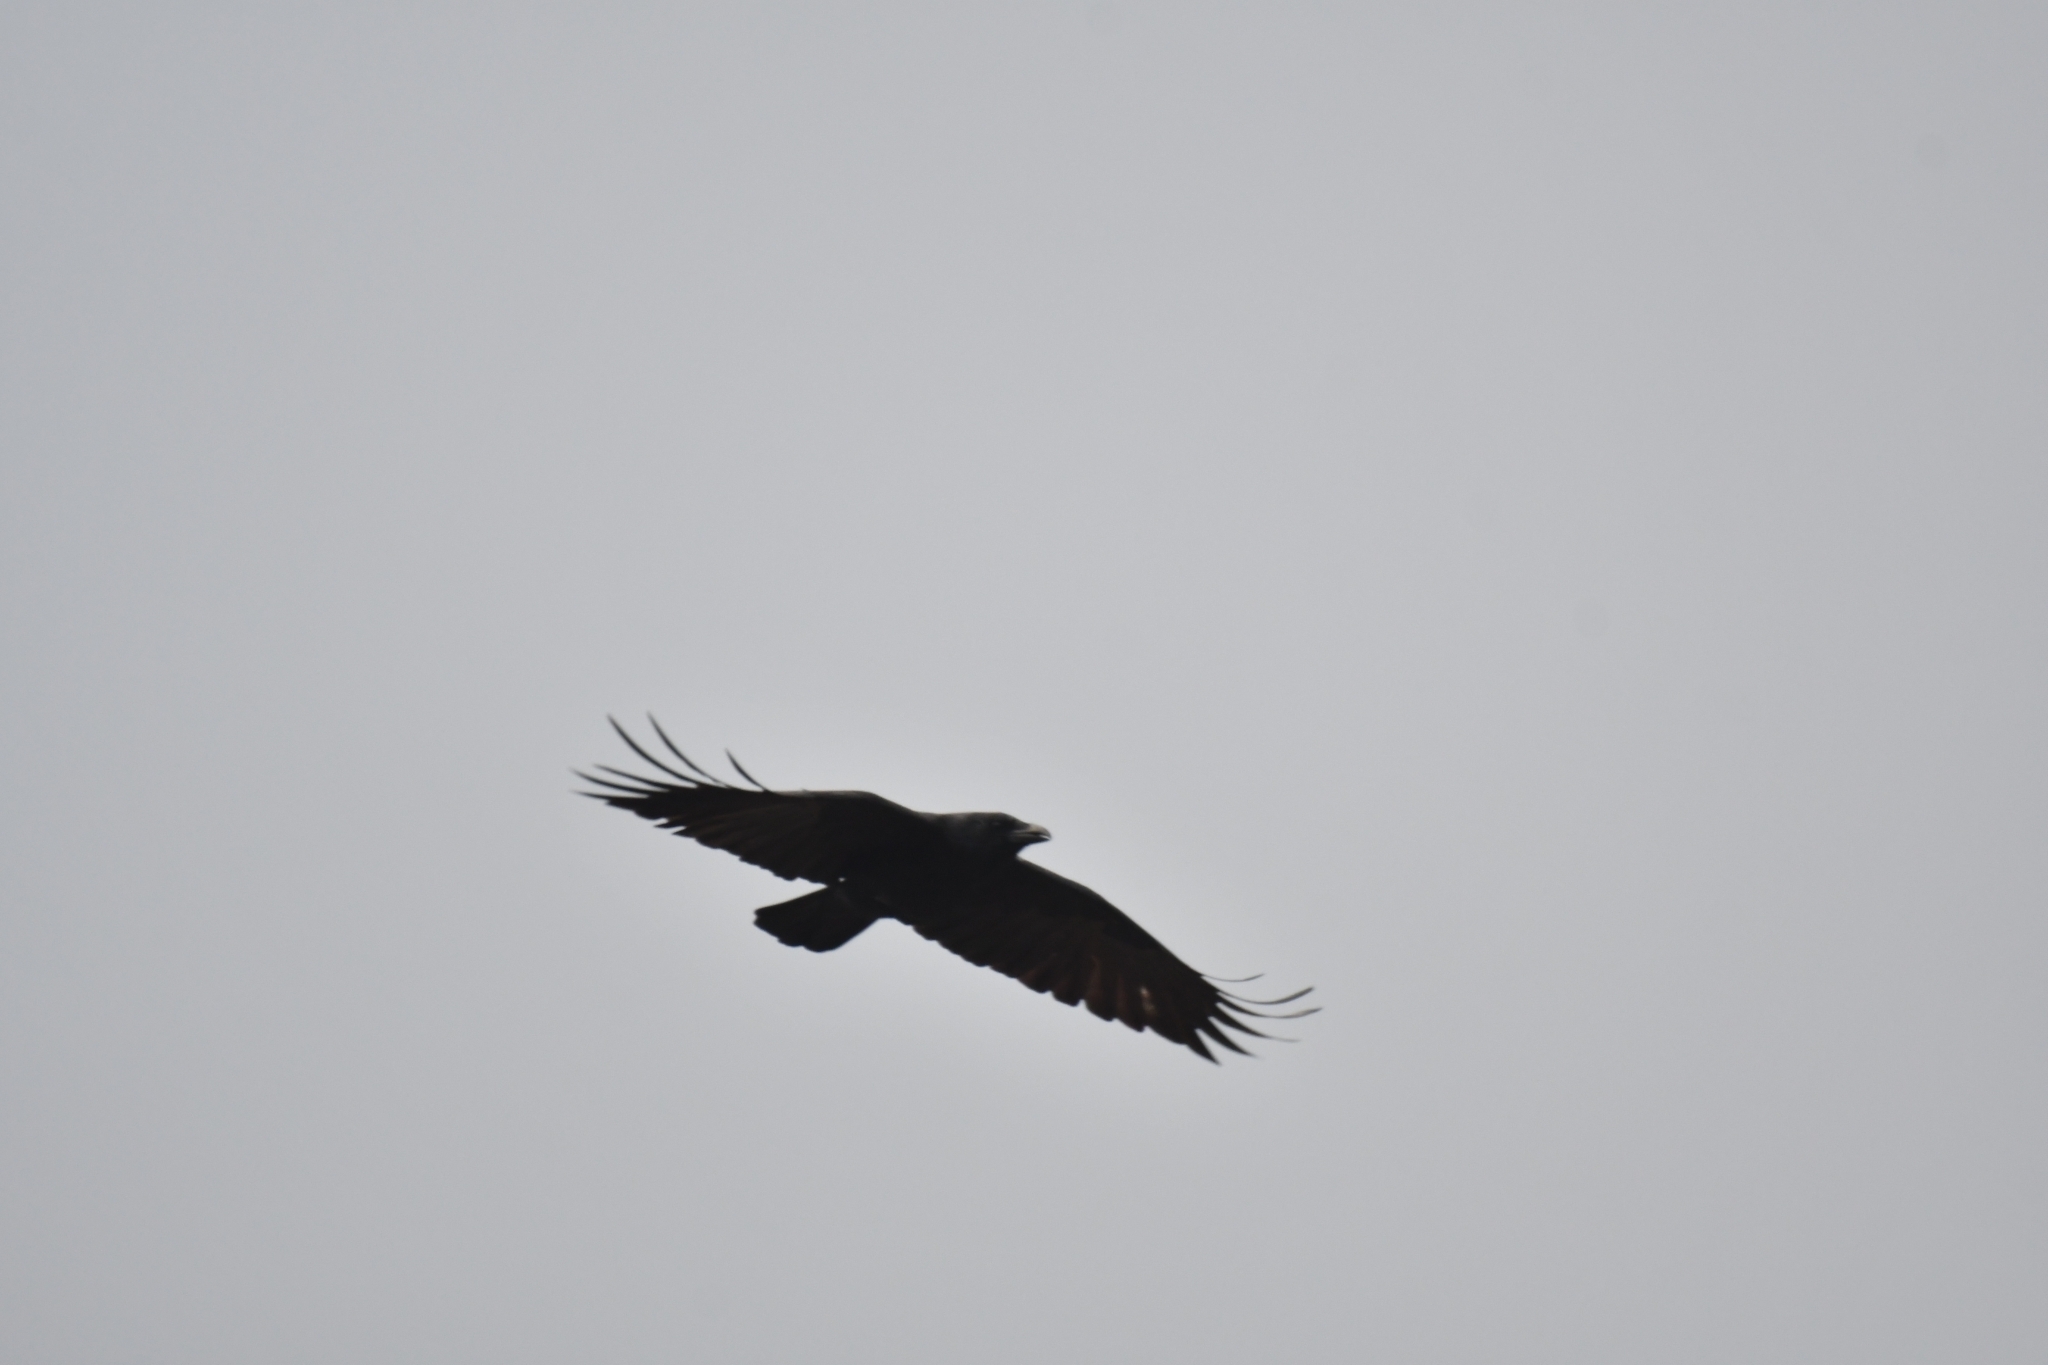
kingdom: Animalia
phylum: Chordata
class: Aves
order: Passeriformes
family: Corvidae
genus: Corvus
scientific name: Corvus corone
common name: Carrion crow
